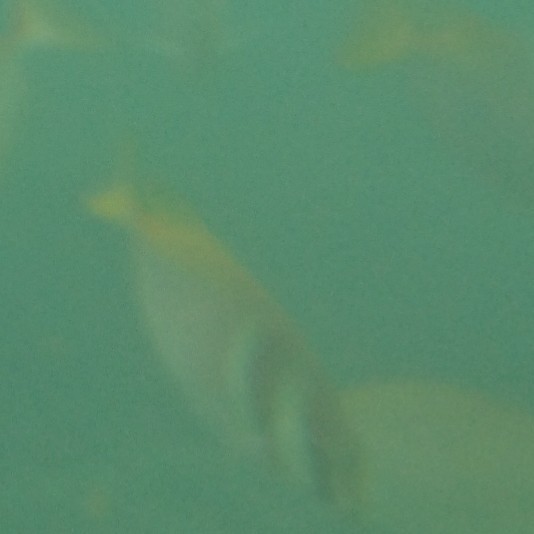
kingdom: Animalia
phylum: Chordata
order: Perciformes
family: Siganidae
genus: Siganus
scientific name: Siganus virgatus
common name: Barhead spinefoot
